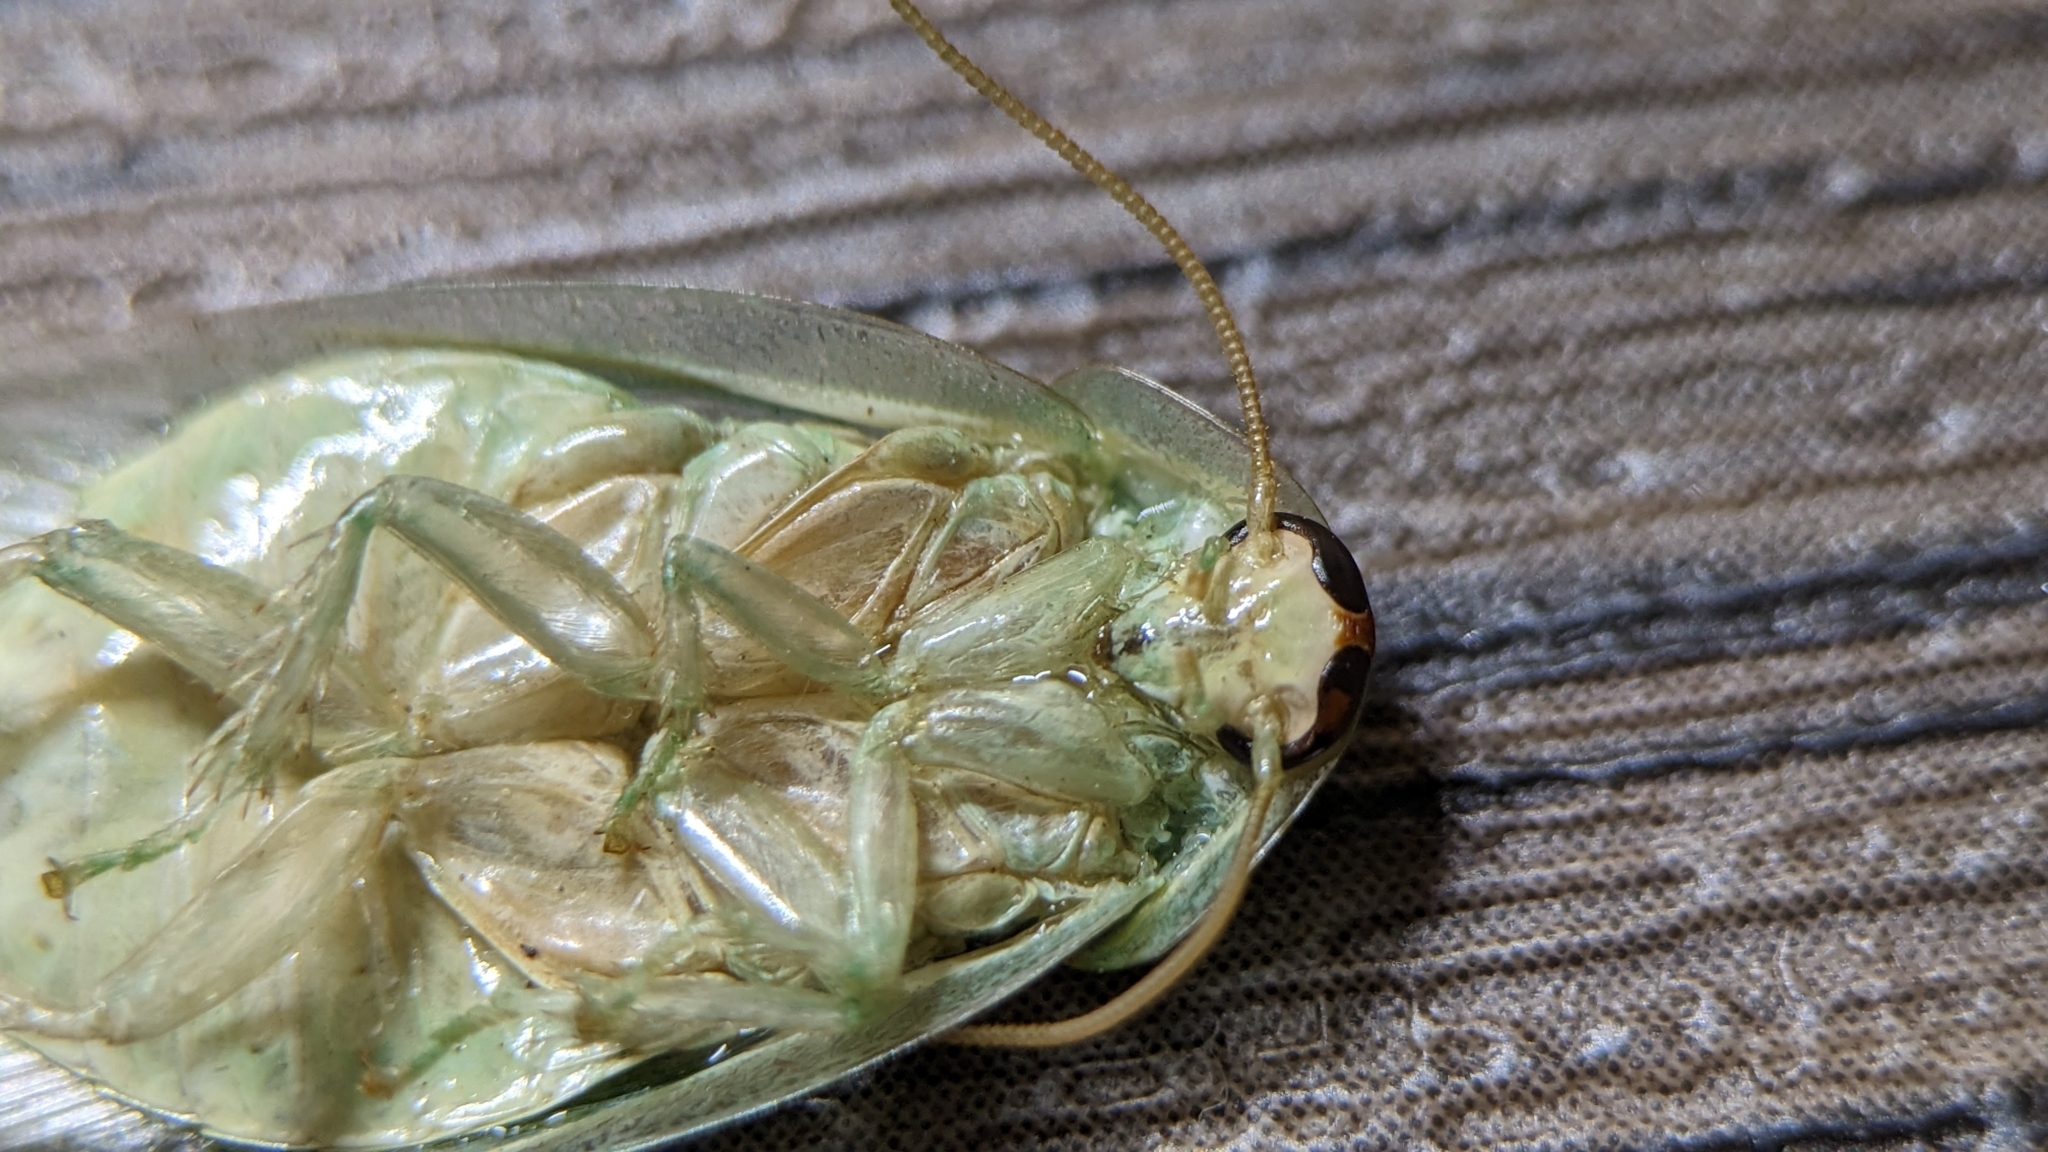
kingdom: Animalia
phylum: Arthropoda
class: Insecta
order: Blattodea
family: Blaberidae
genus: Panchlora
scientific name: Panchlora nivea
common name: Cuban cockroach
